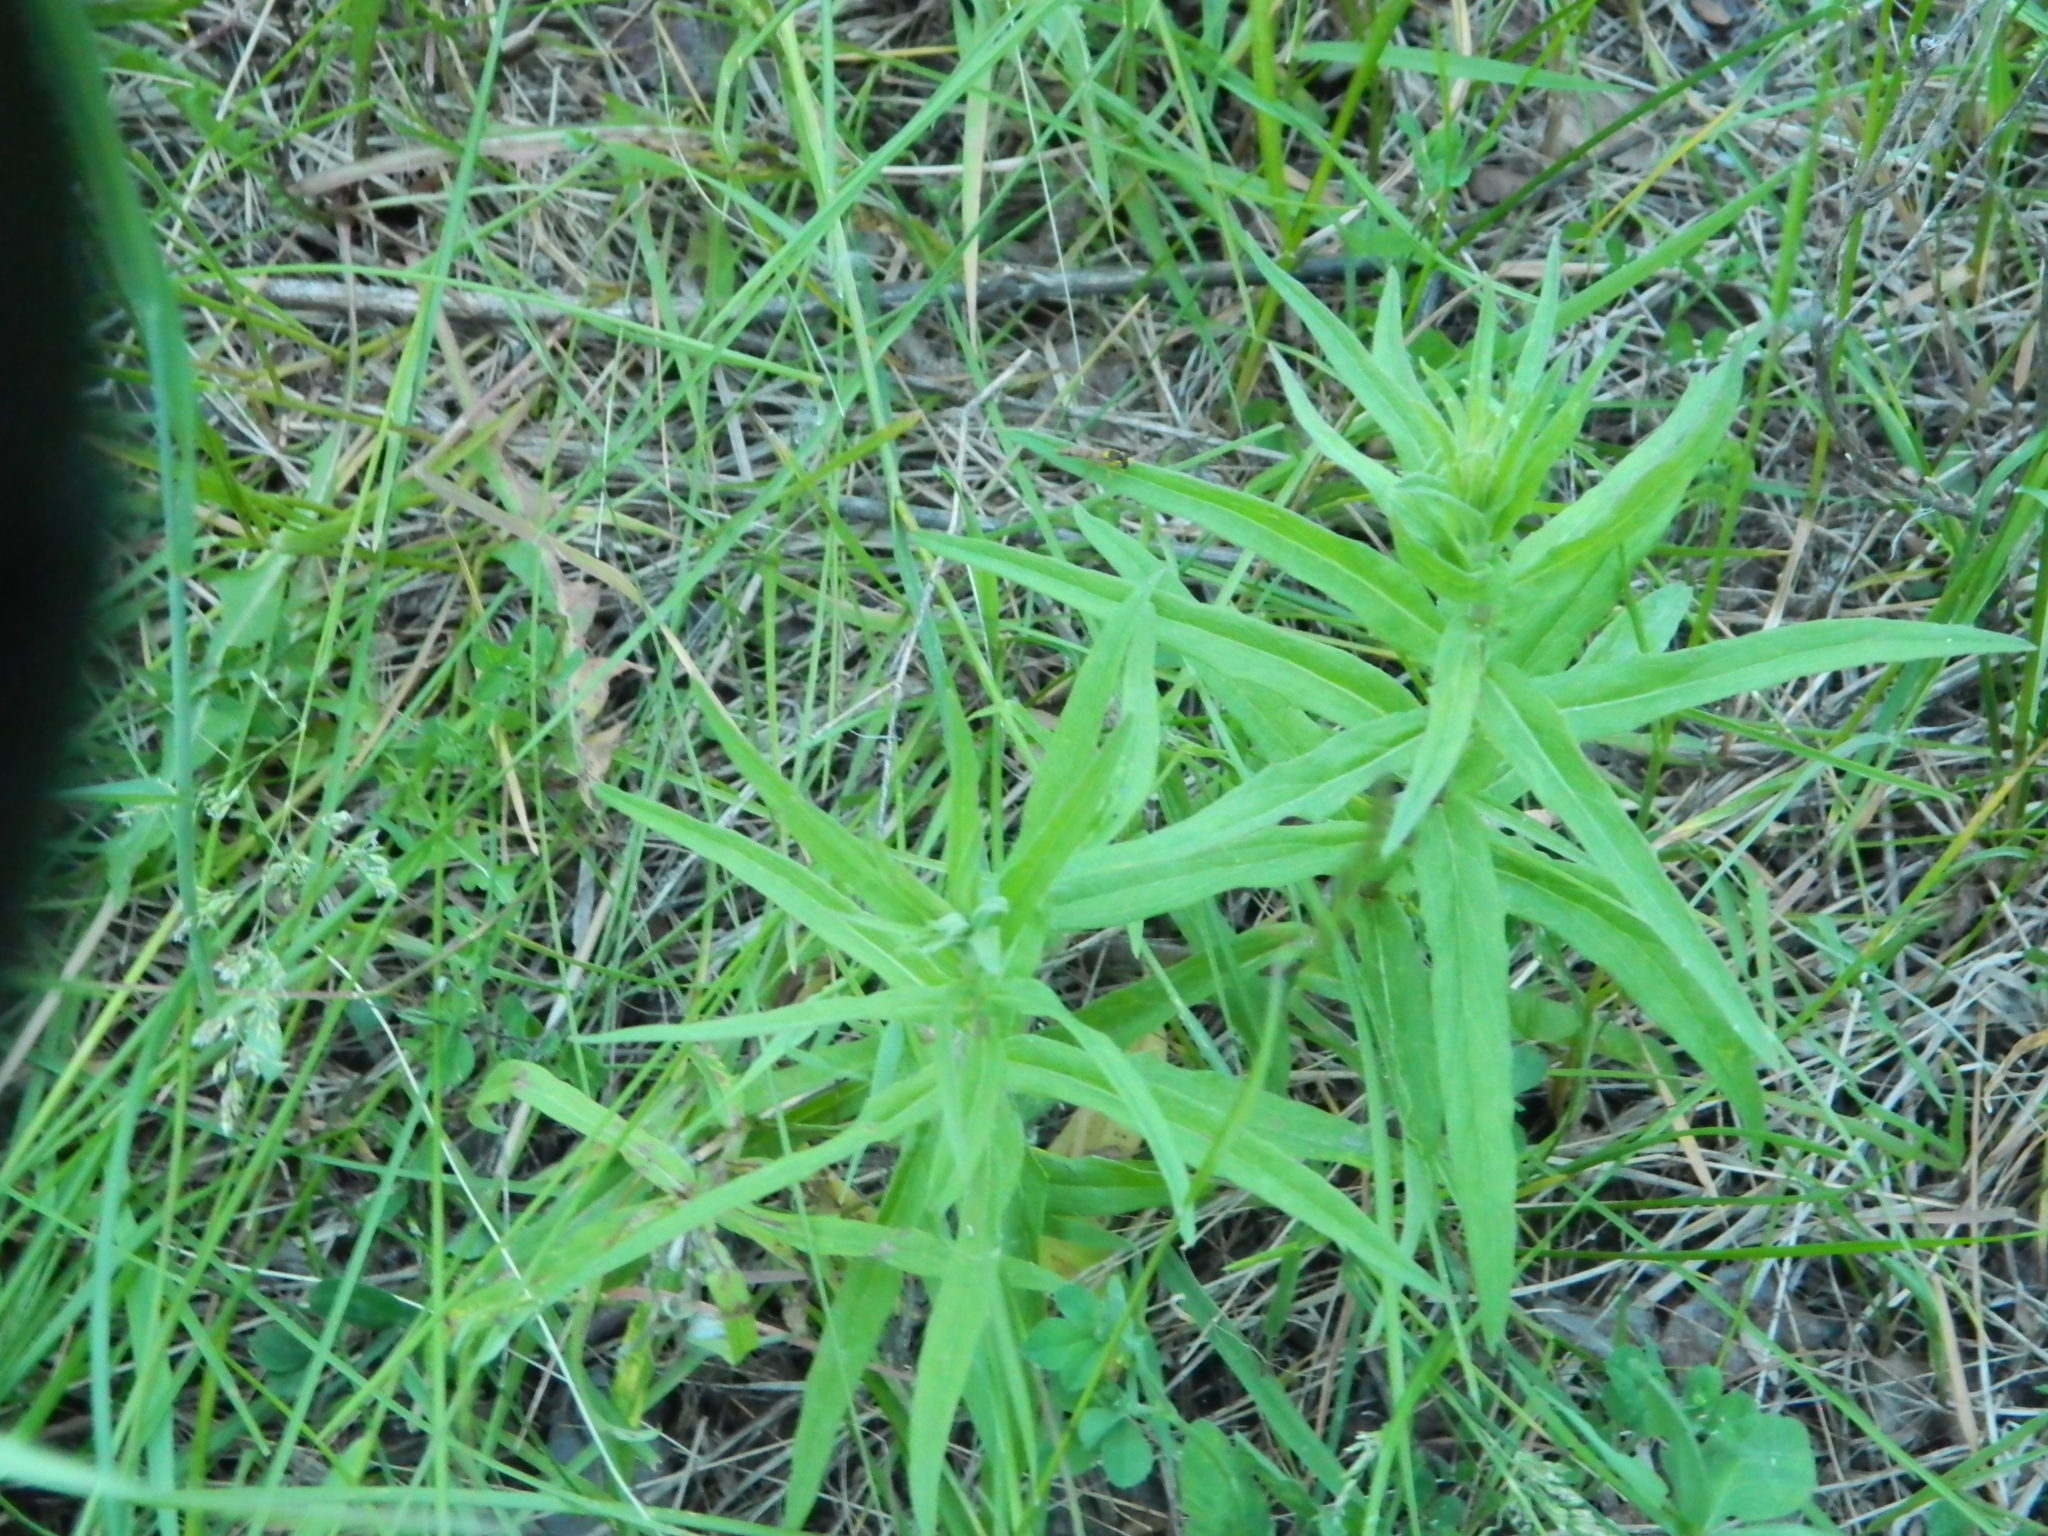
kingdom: Plantae
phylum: Tracheophyta
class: Magnoliopsida
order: Asterales
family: Asteraceae
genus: Hieracium
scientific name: Hieracium umbellatum
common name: Northern hawkweed
